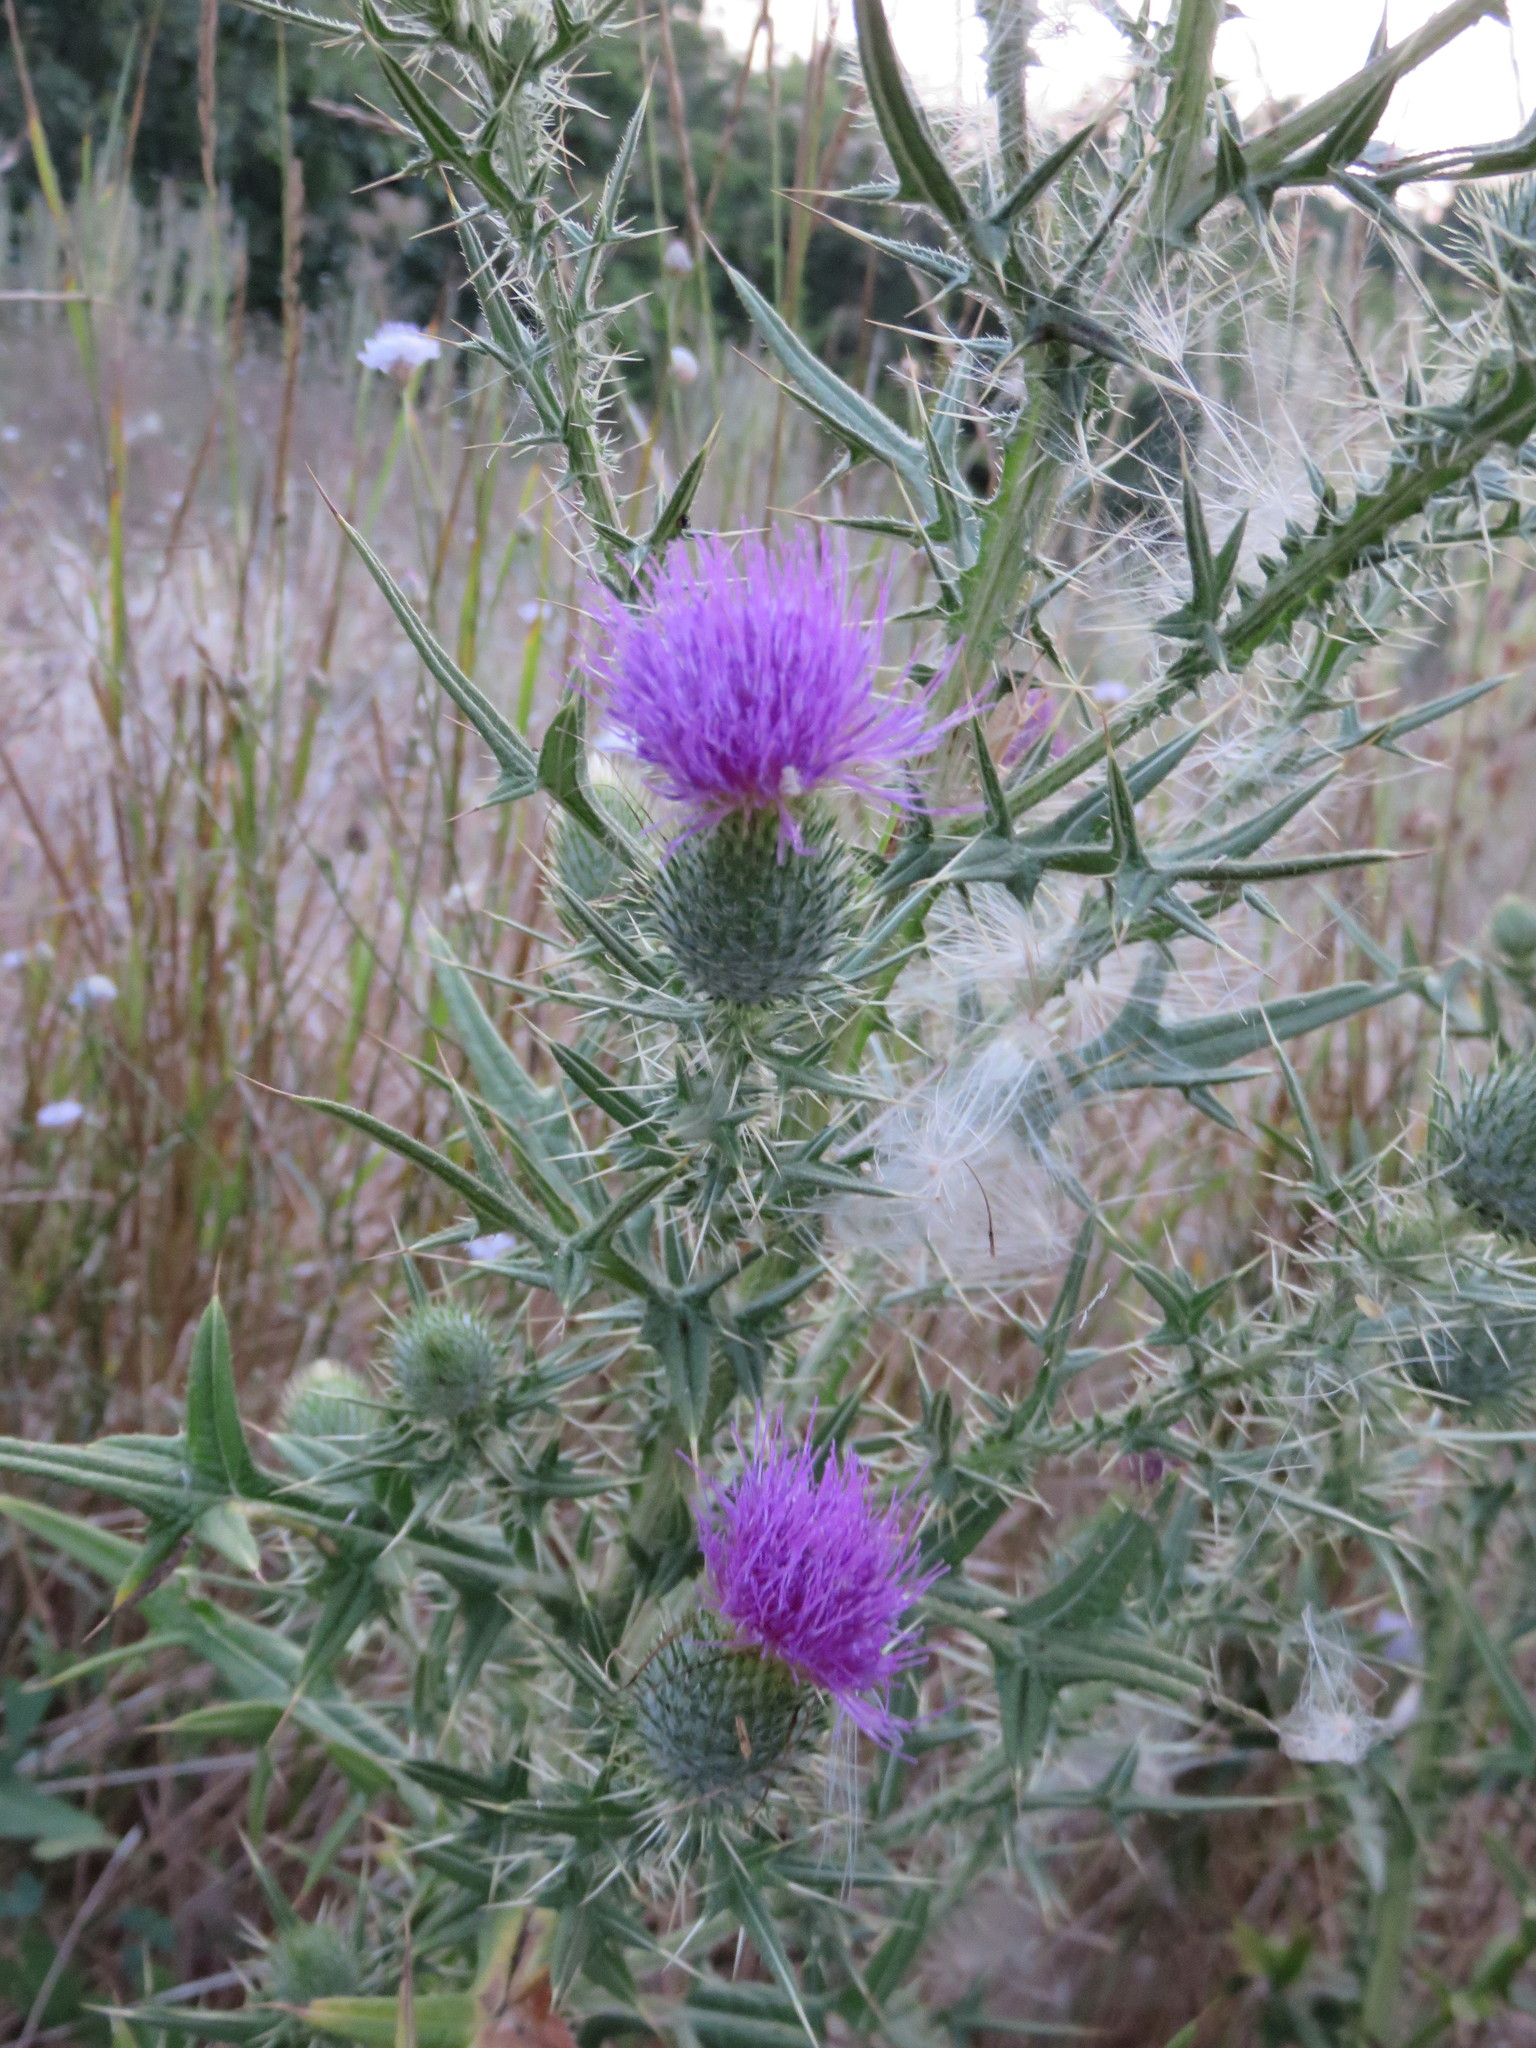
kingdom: Plantae
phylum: Tracheophyta
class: Magnoliopsida
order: Asterales
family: Asteraceae
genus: Cirsium
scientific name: Cirsium vulgare
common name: Bull thistle
